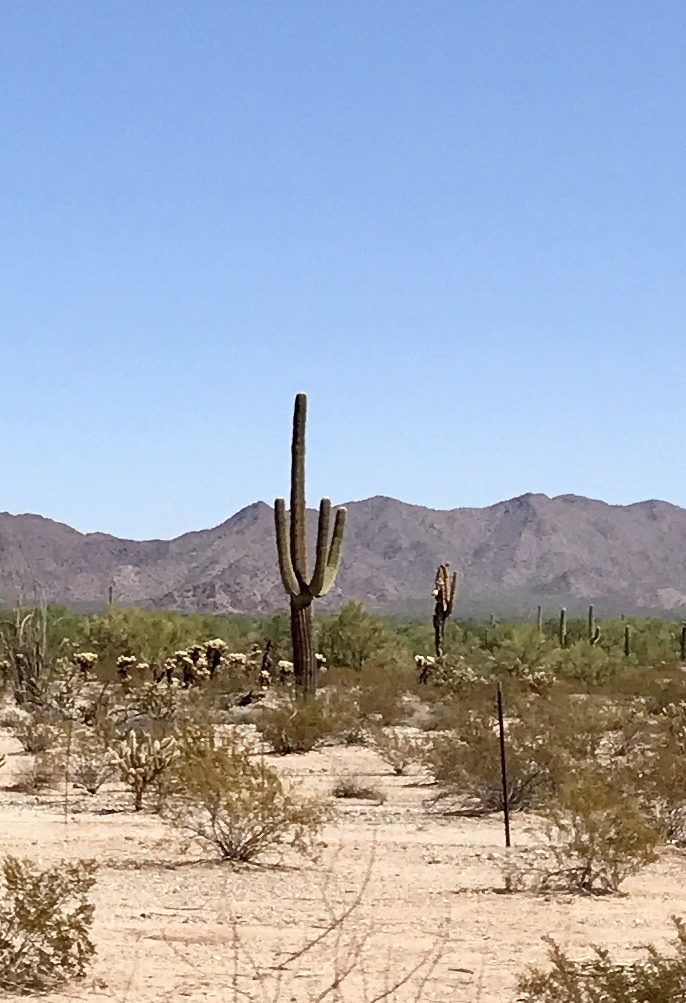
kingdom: Plantae
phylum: Tracheophyta
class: Magnoliopsida
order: Caryophyllales
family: Cactaceae
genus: Carnegiea
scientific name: Carnegiea gigantea
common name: Saguaro
